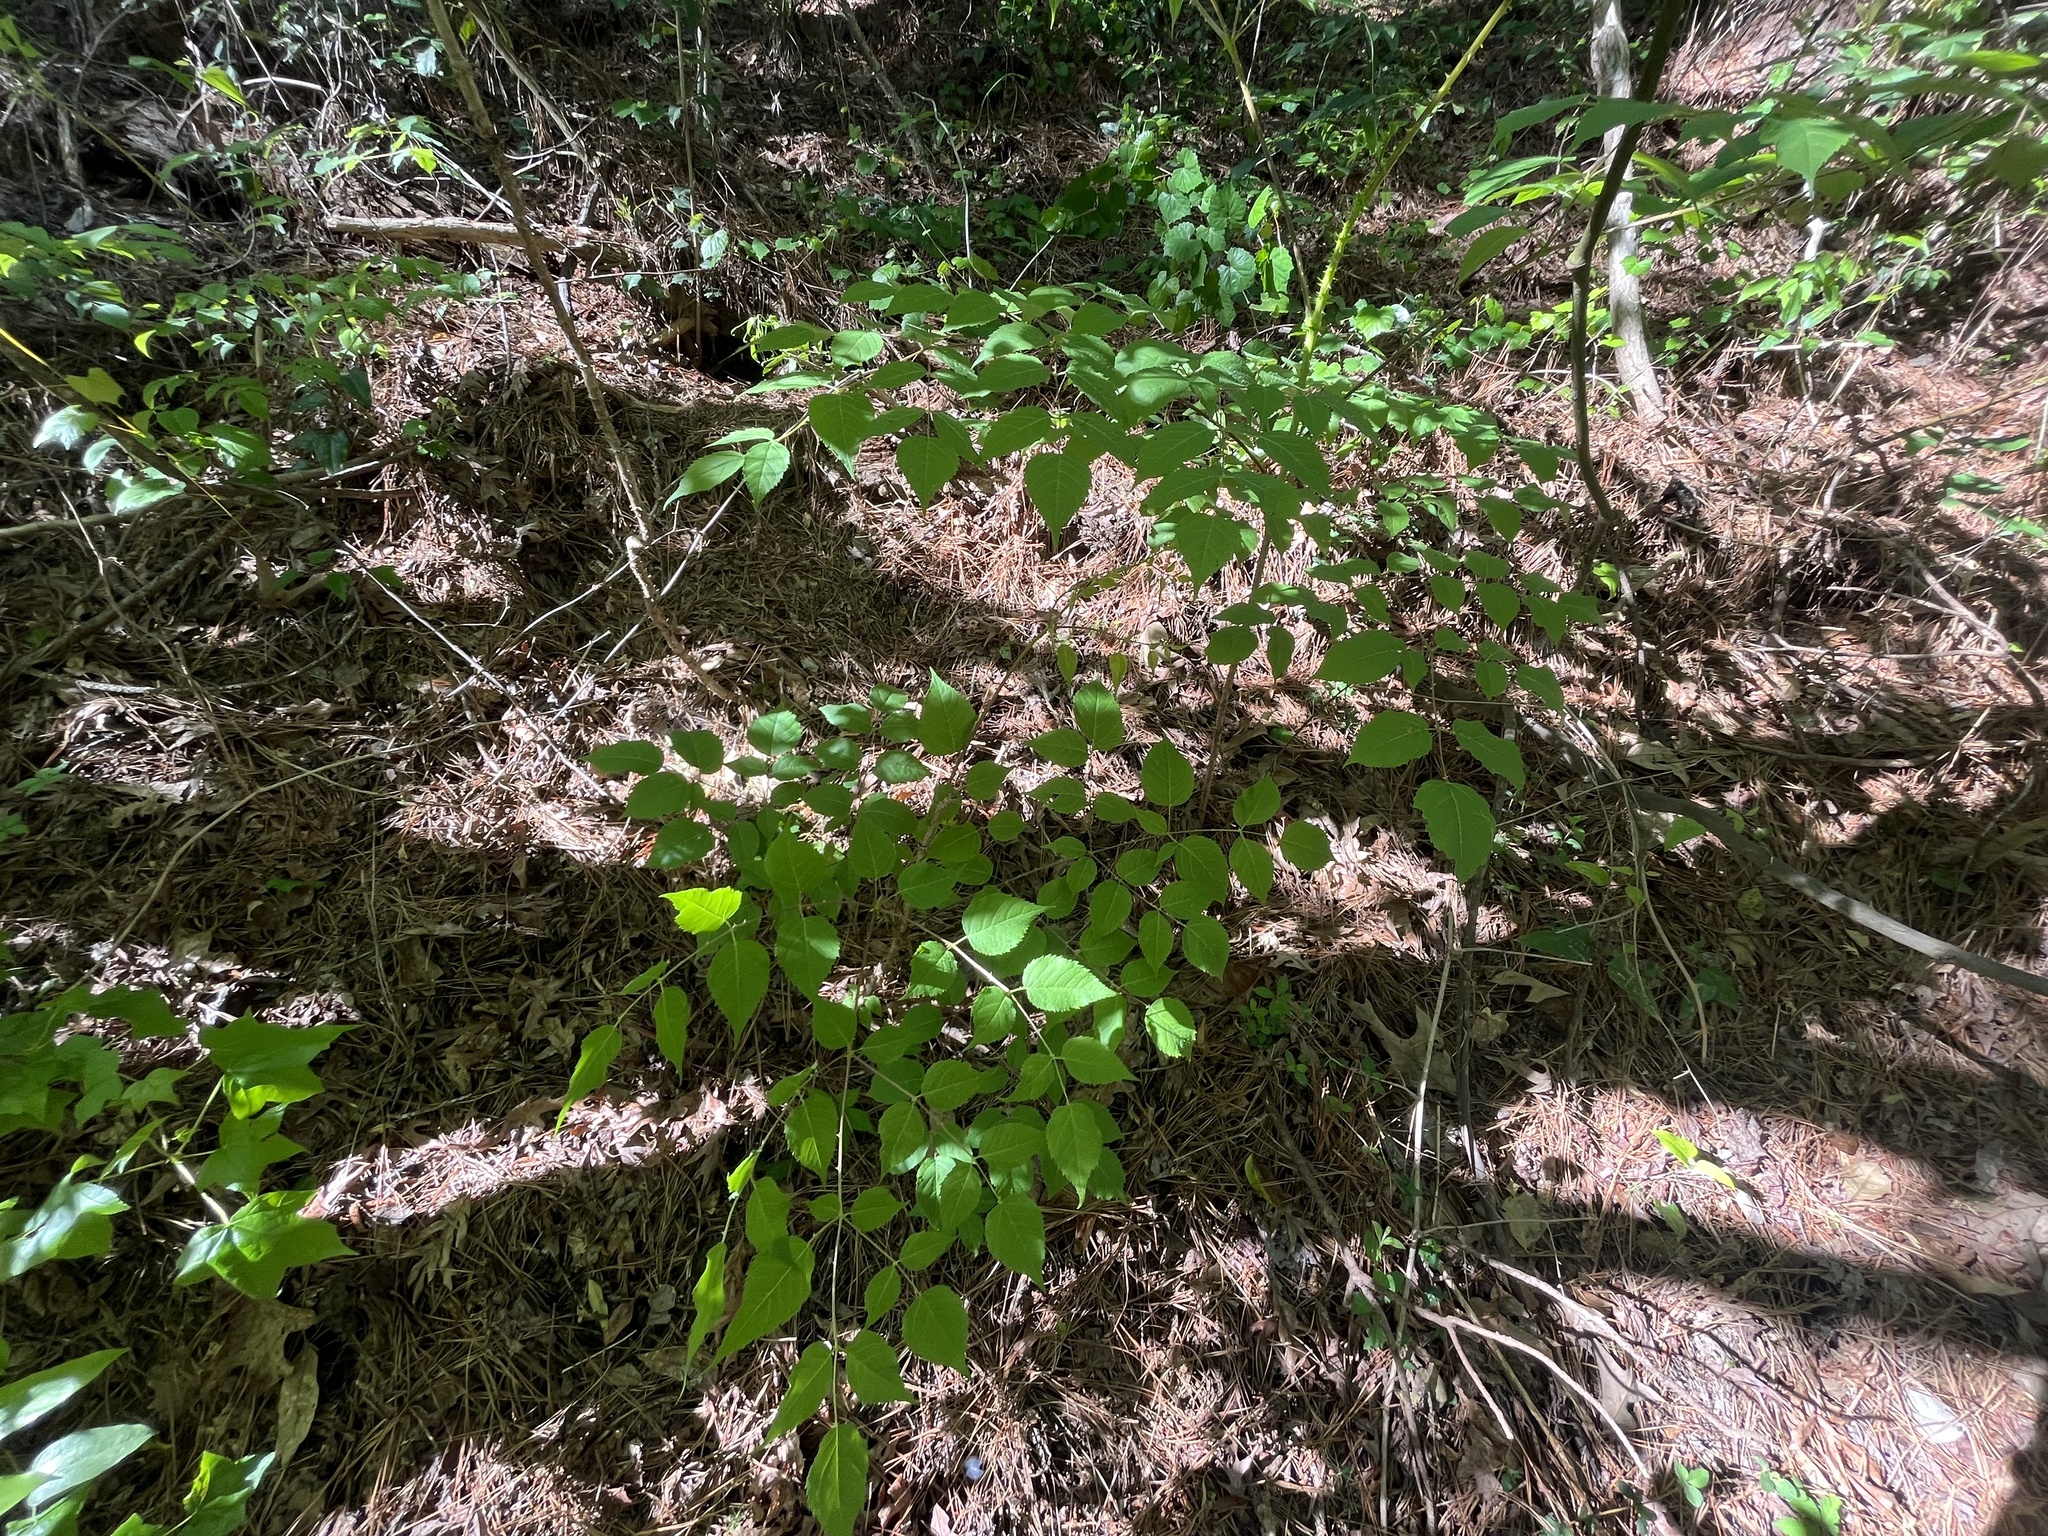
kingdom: Plantae
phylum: Tracheophyta
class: Magnoliopsida
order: Apiales
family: Araliaceae
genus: Aralia
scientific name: Aralia spinosa
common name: Hercules'-club
